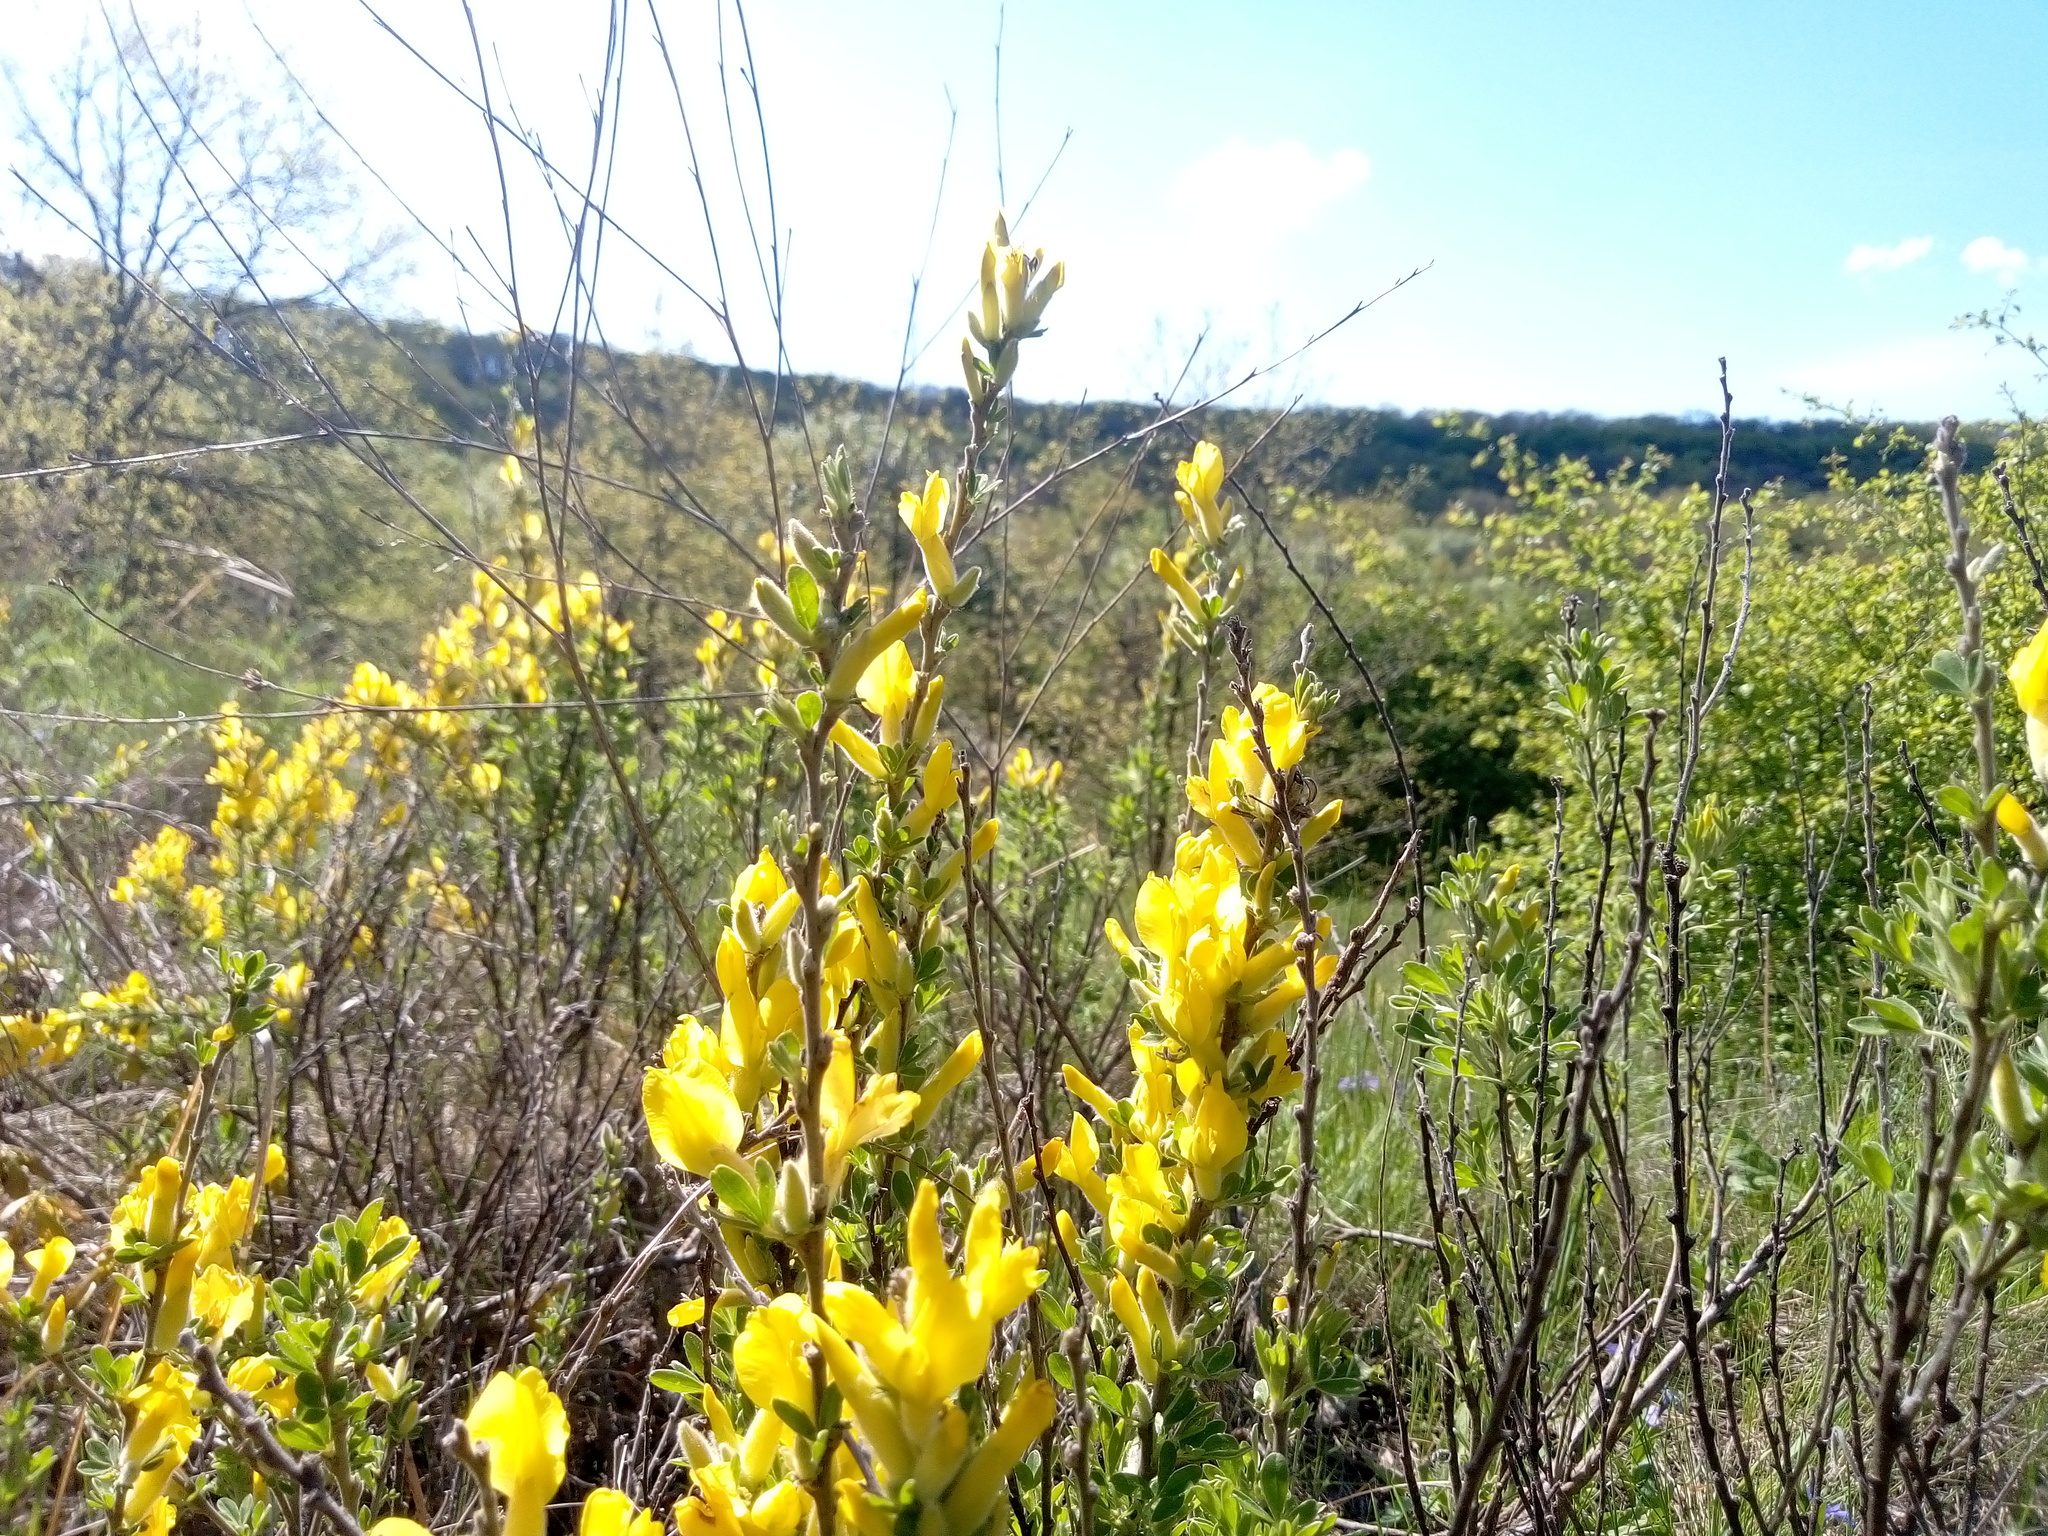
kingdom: Plantae
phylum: Tracheophyta
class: Magnoliopsida
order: Fabales
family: Fabaceae
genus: Chamaecytisus
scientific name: Chamaecytisus lindemannii
